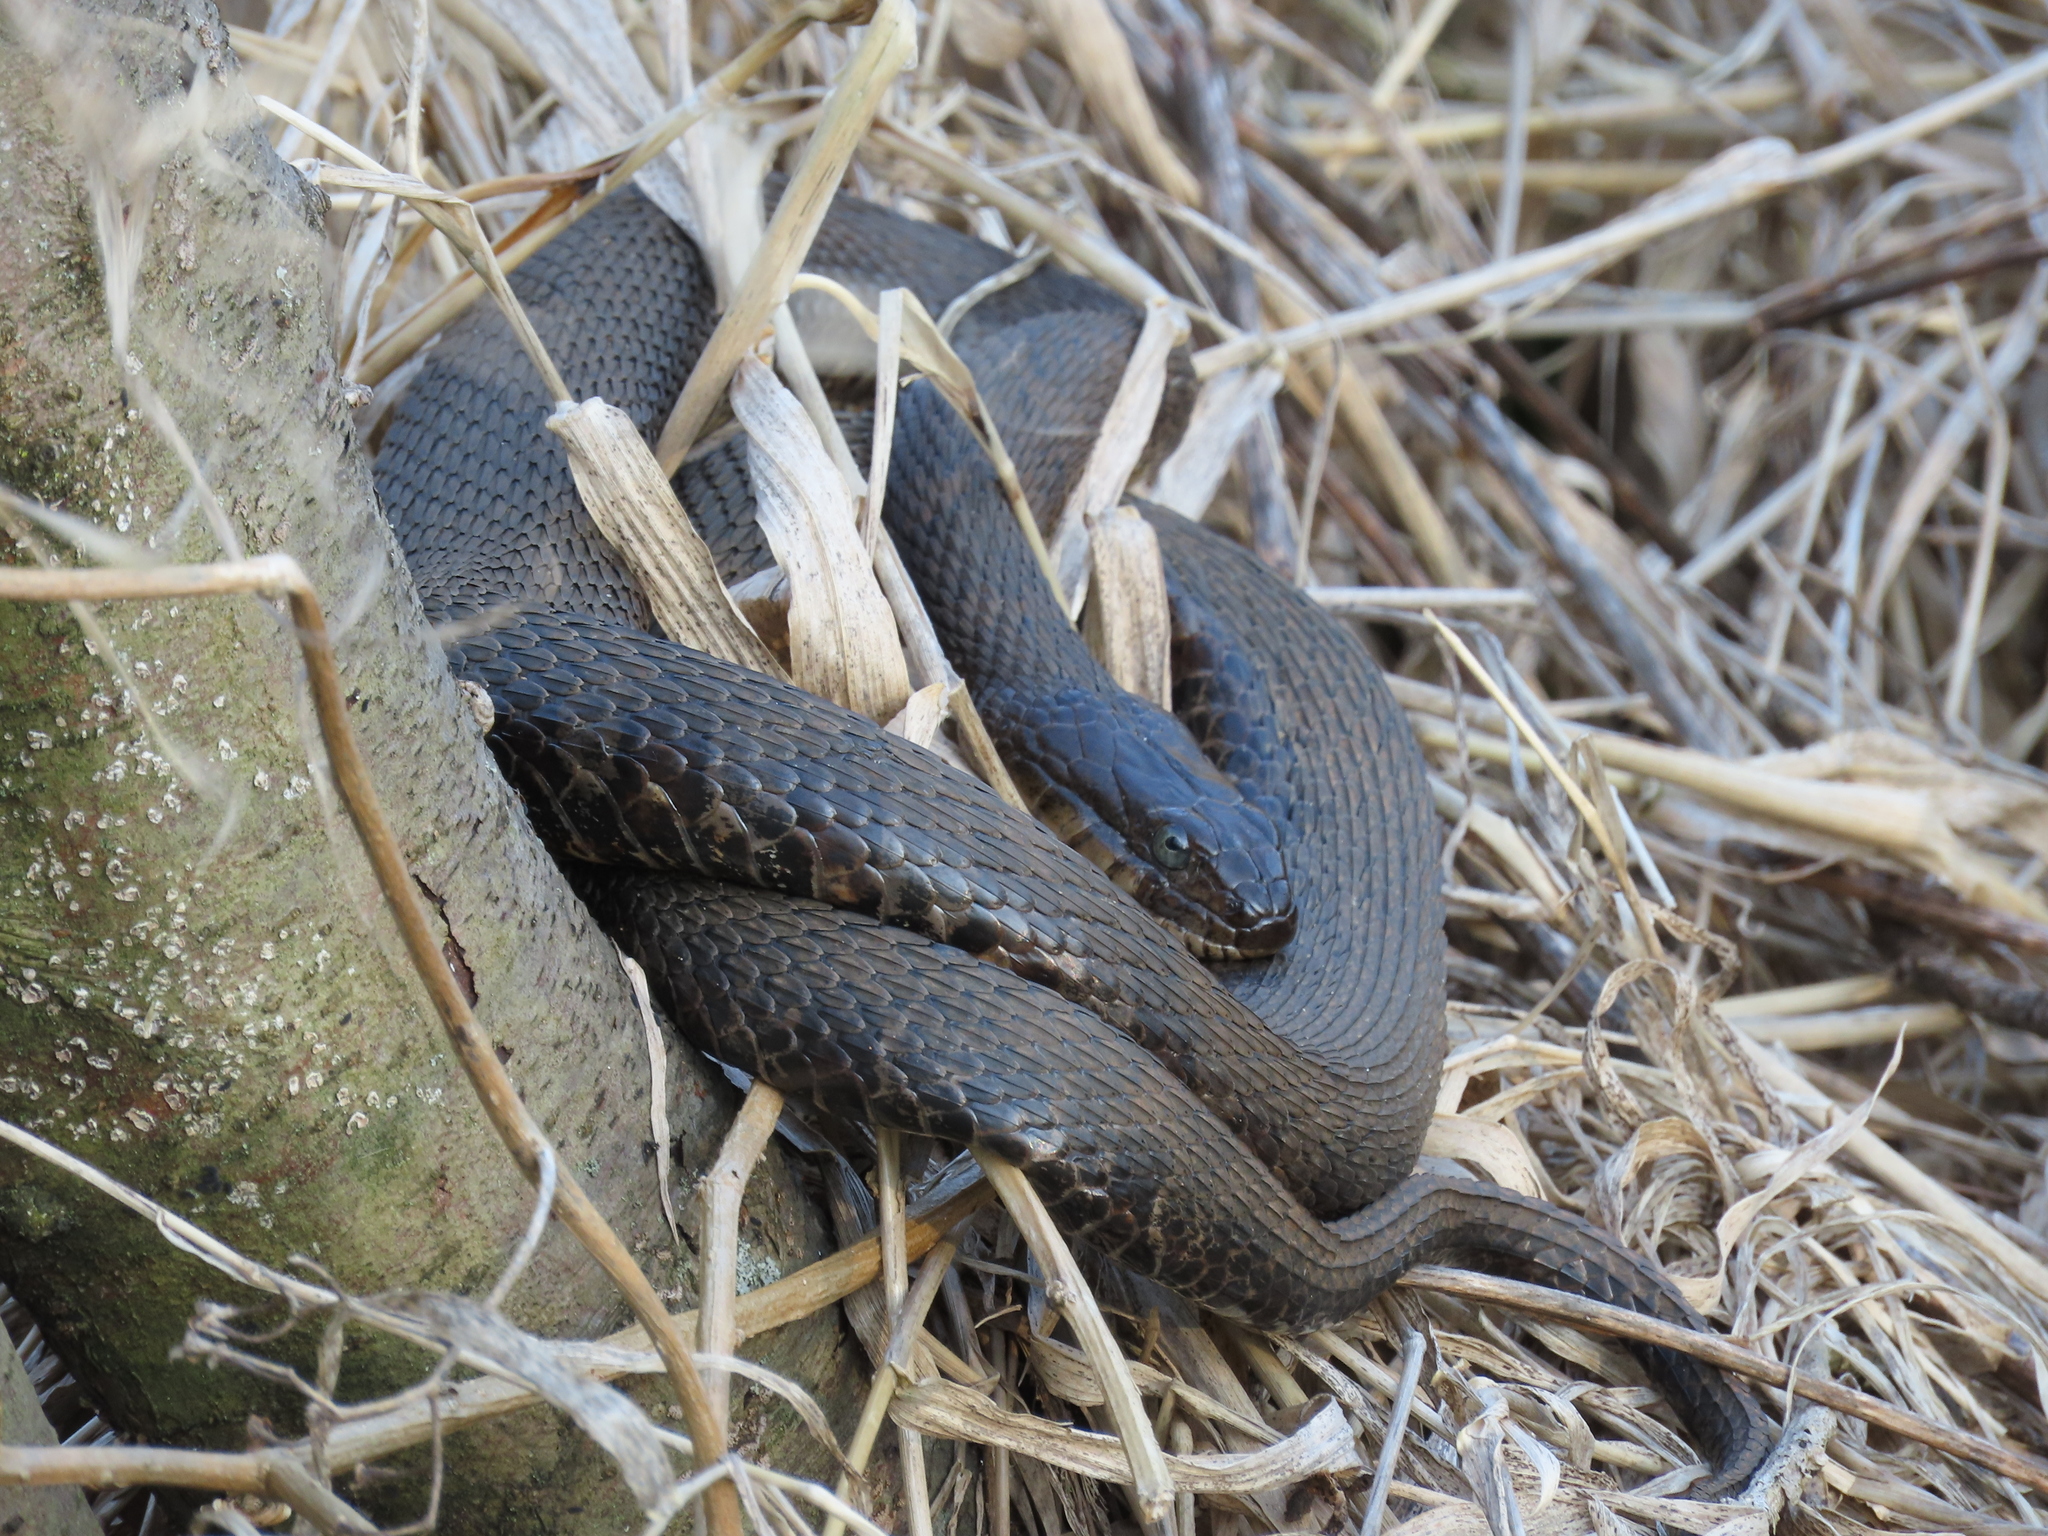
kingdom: Animalia
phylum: Chordata
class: Squamata
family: Colubridae
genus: Nerodia
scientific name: Nerodia sipedon
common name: Northern water snake
